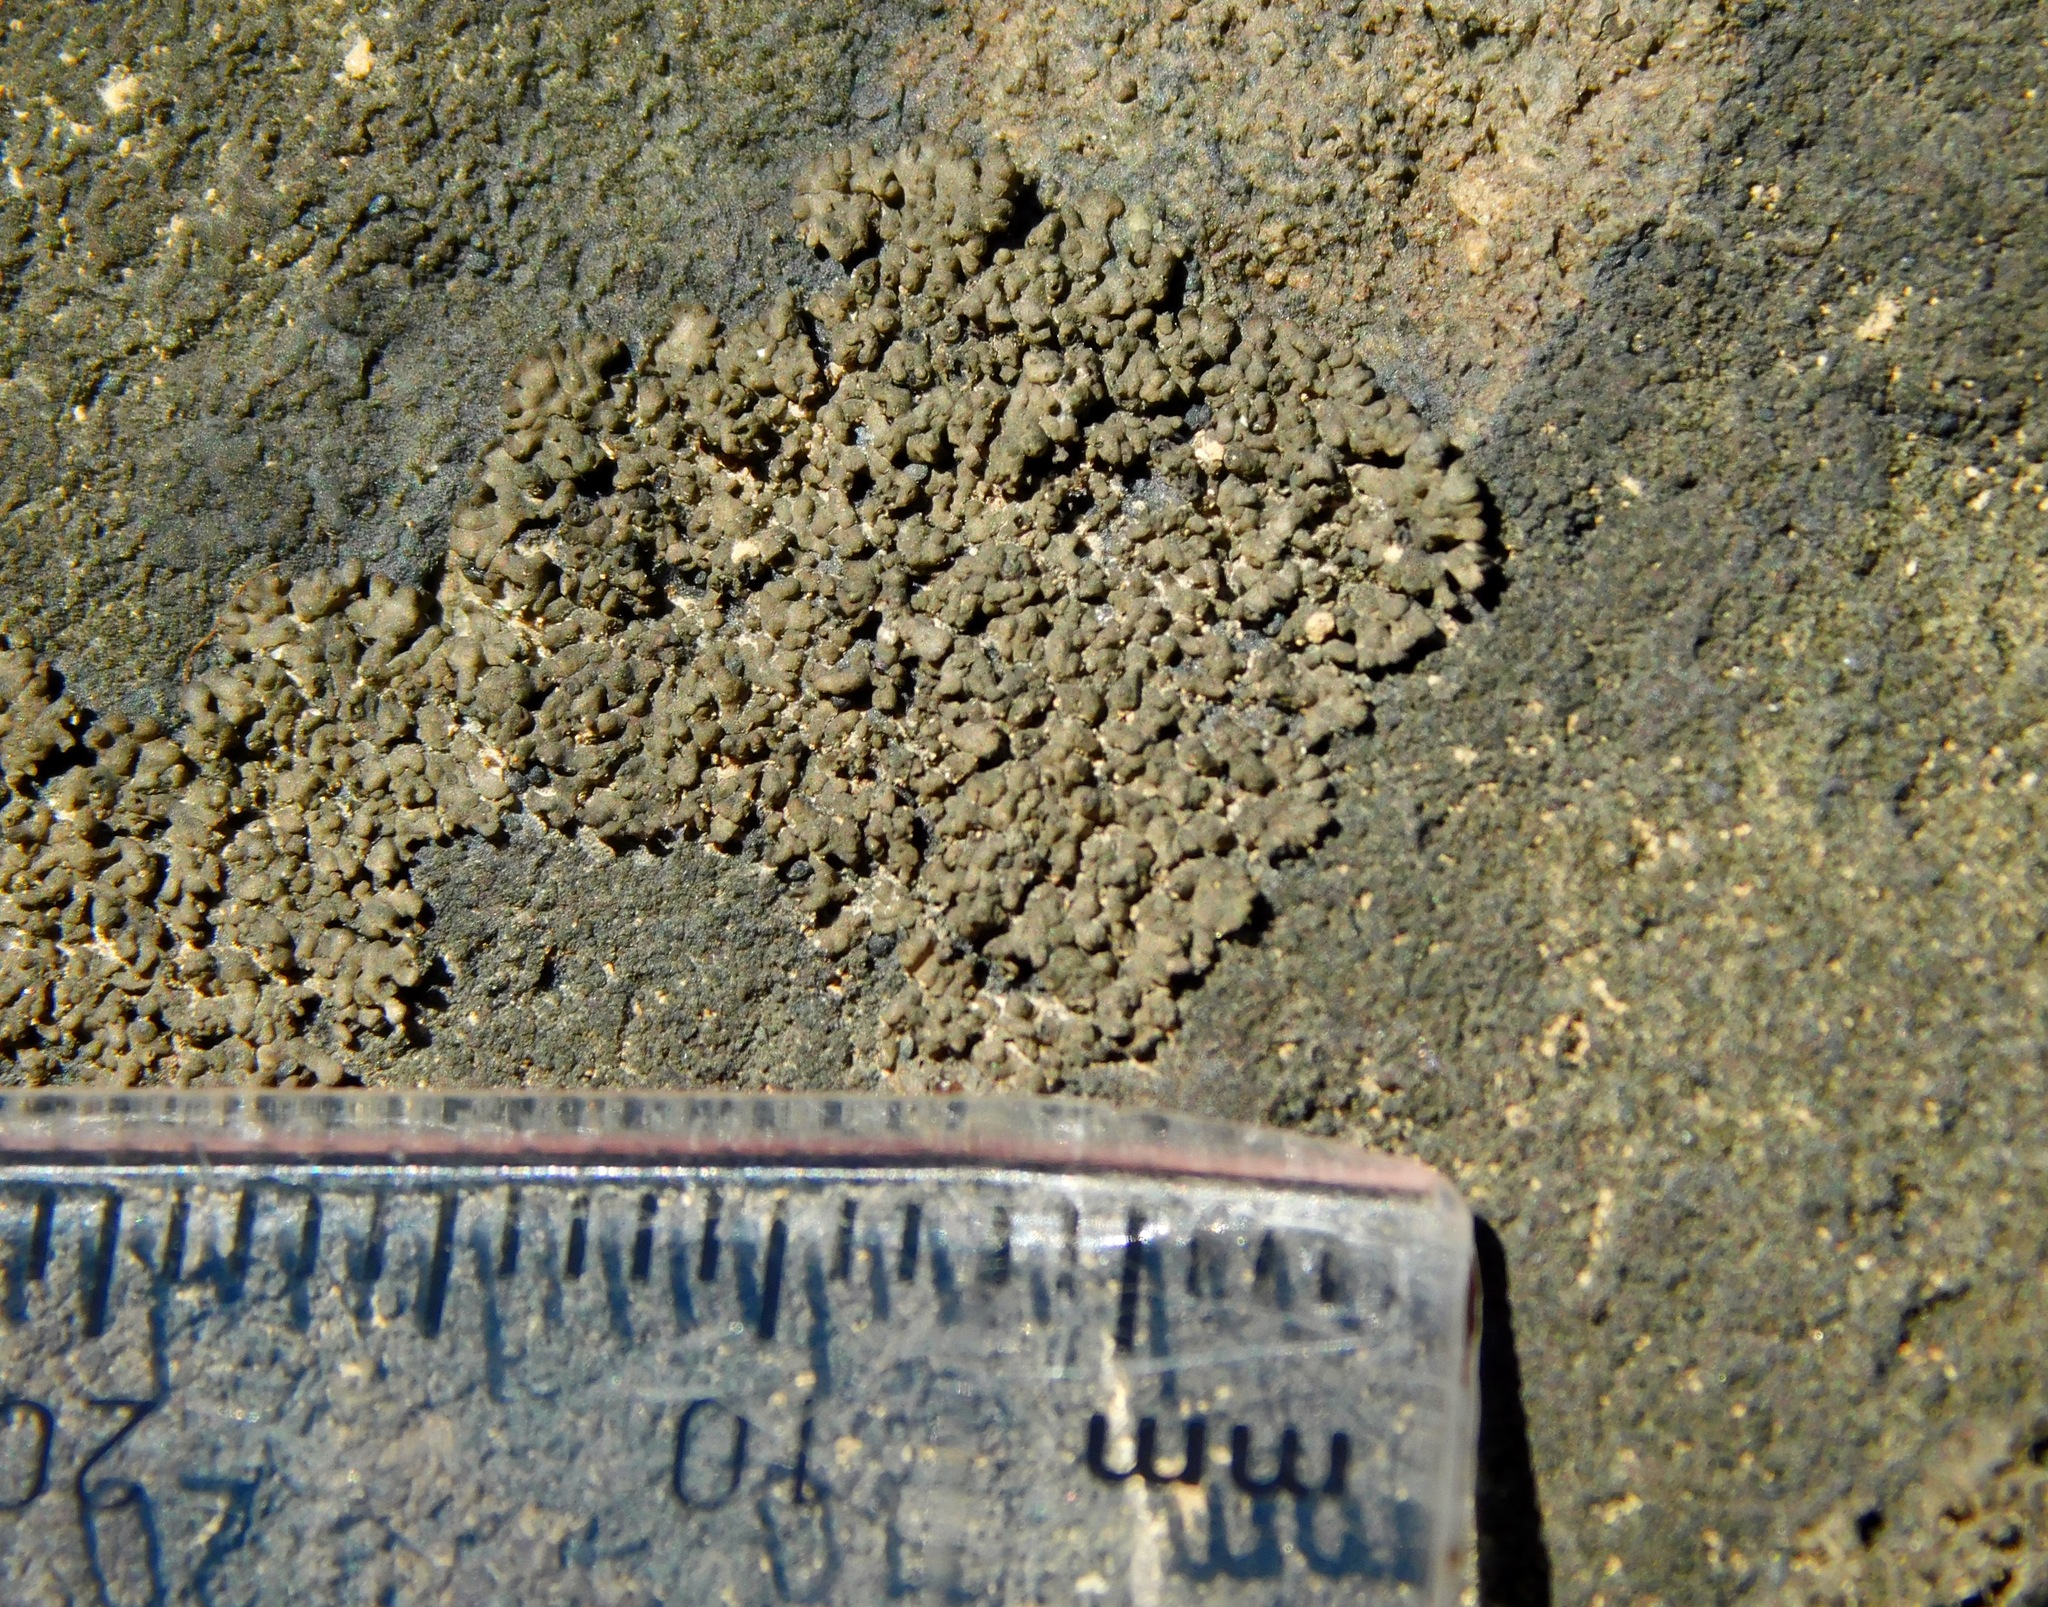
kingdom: Fungi
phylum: Ascomycota
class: Eurotiomycetes
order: Verrucariales
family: Verrucariaceae
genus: Verrucaria
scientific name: Verrucaria lobata
